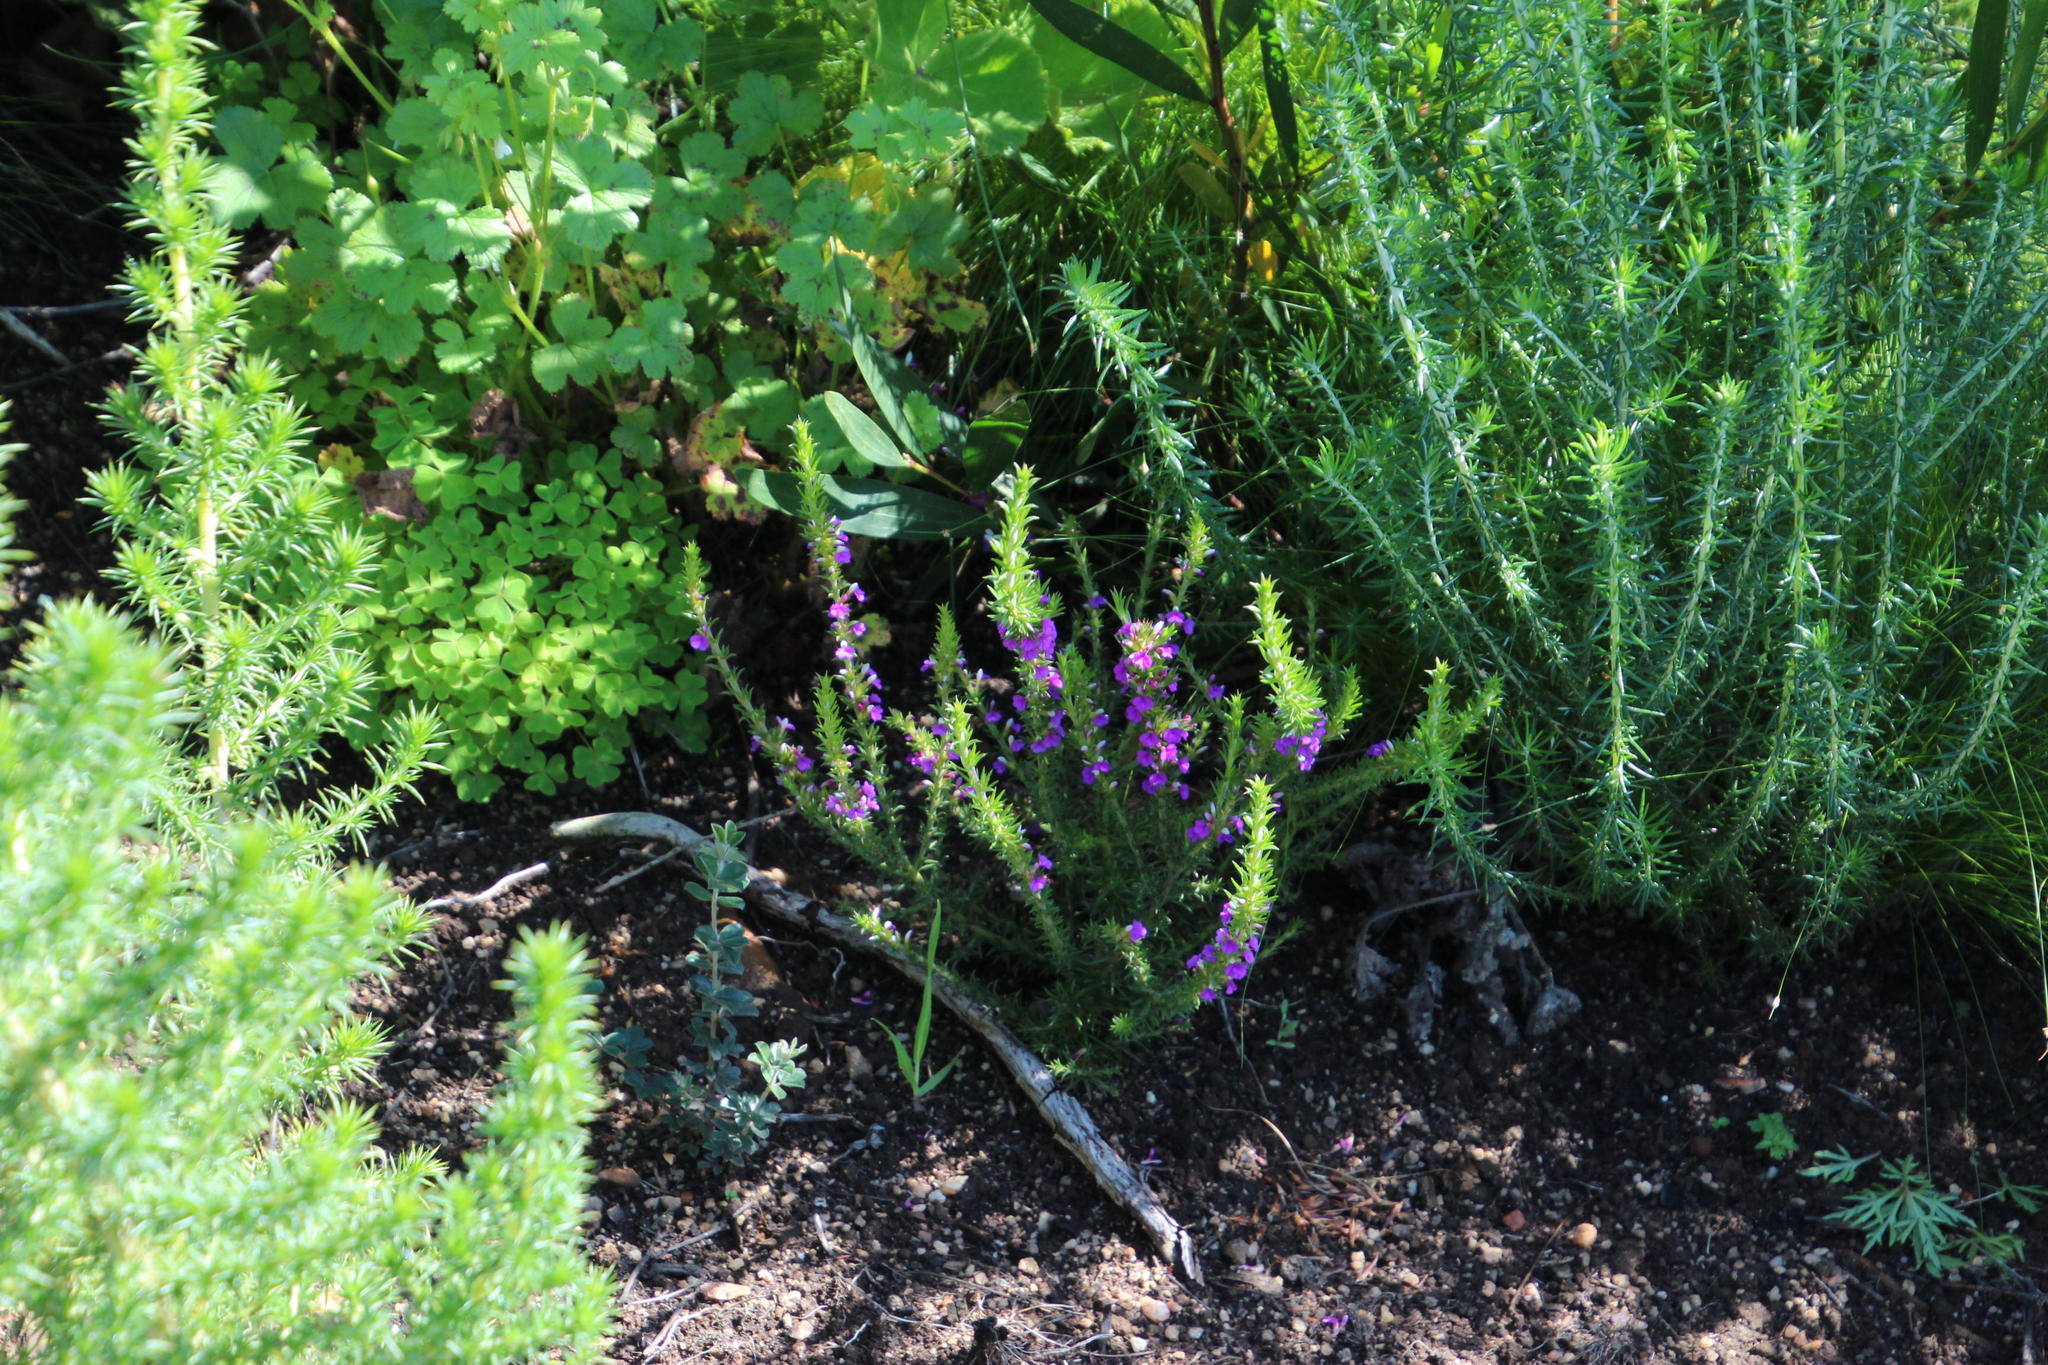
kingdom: Plantae
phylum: Tracheophyta
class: Magnoliopsida
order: Fabales
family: Polygalaceae
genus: Muraltia
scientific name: Muraltia heisteria
